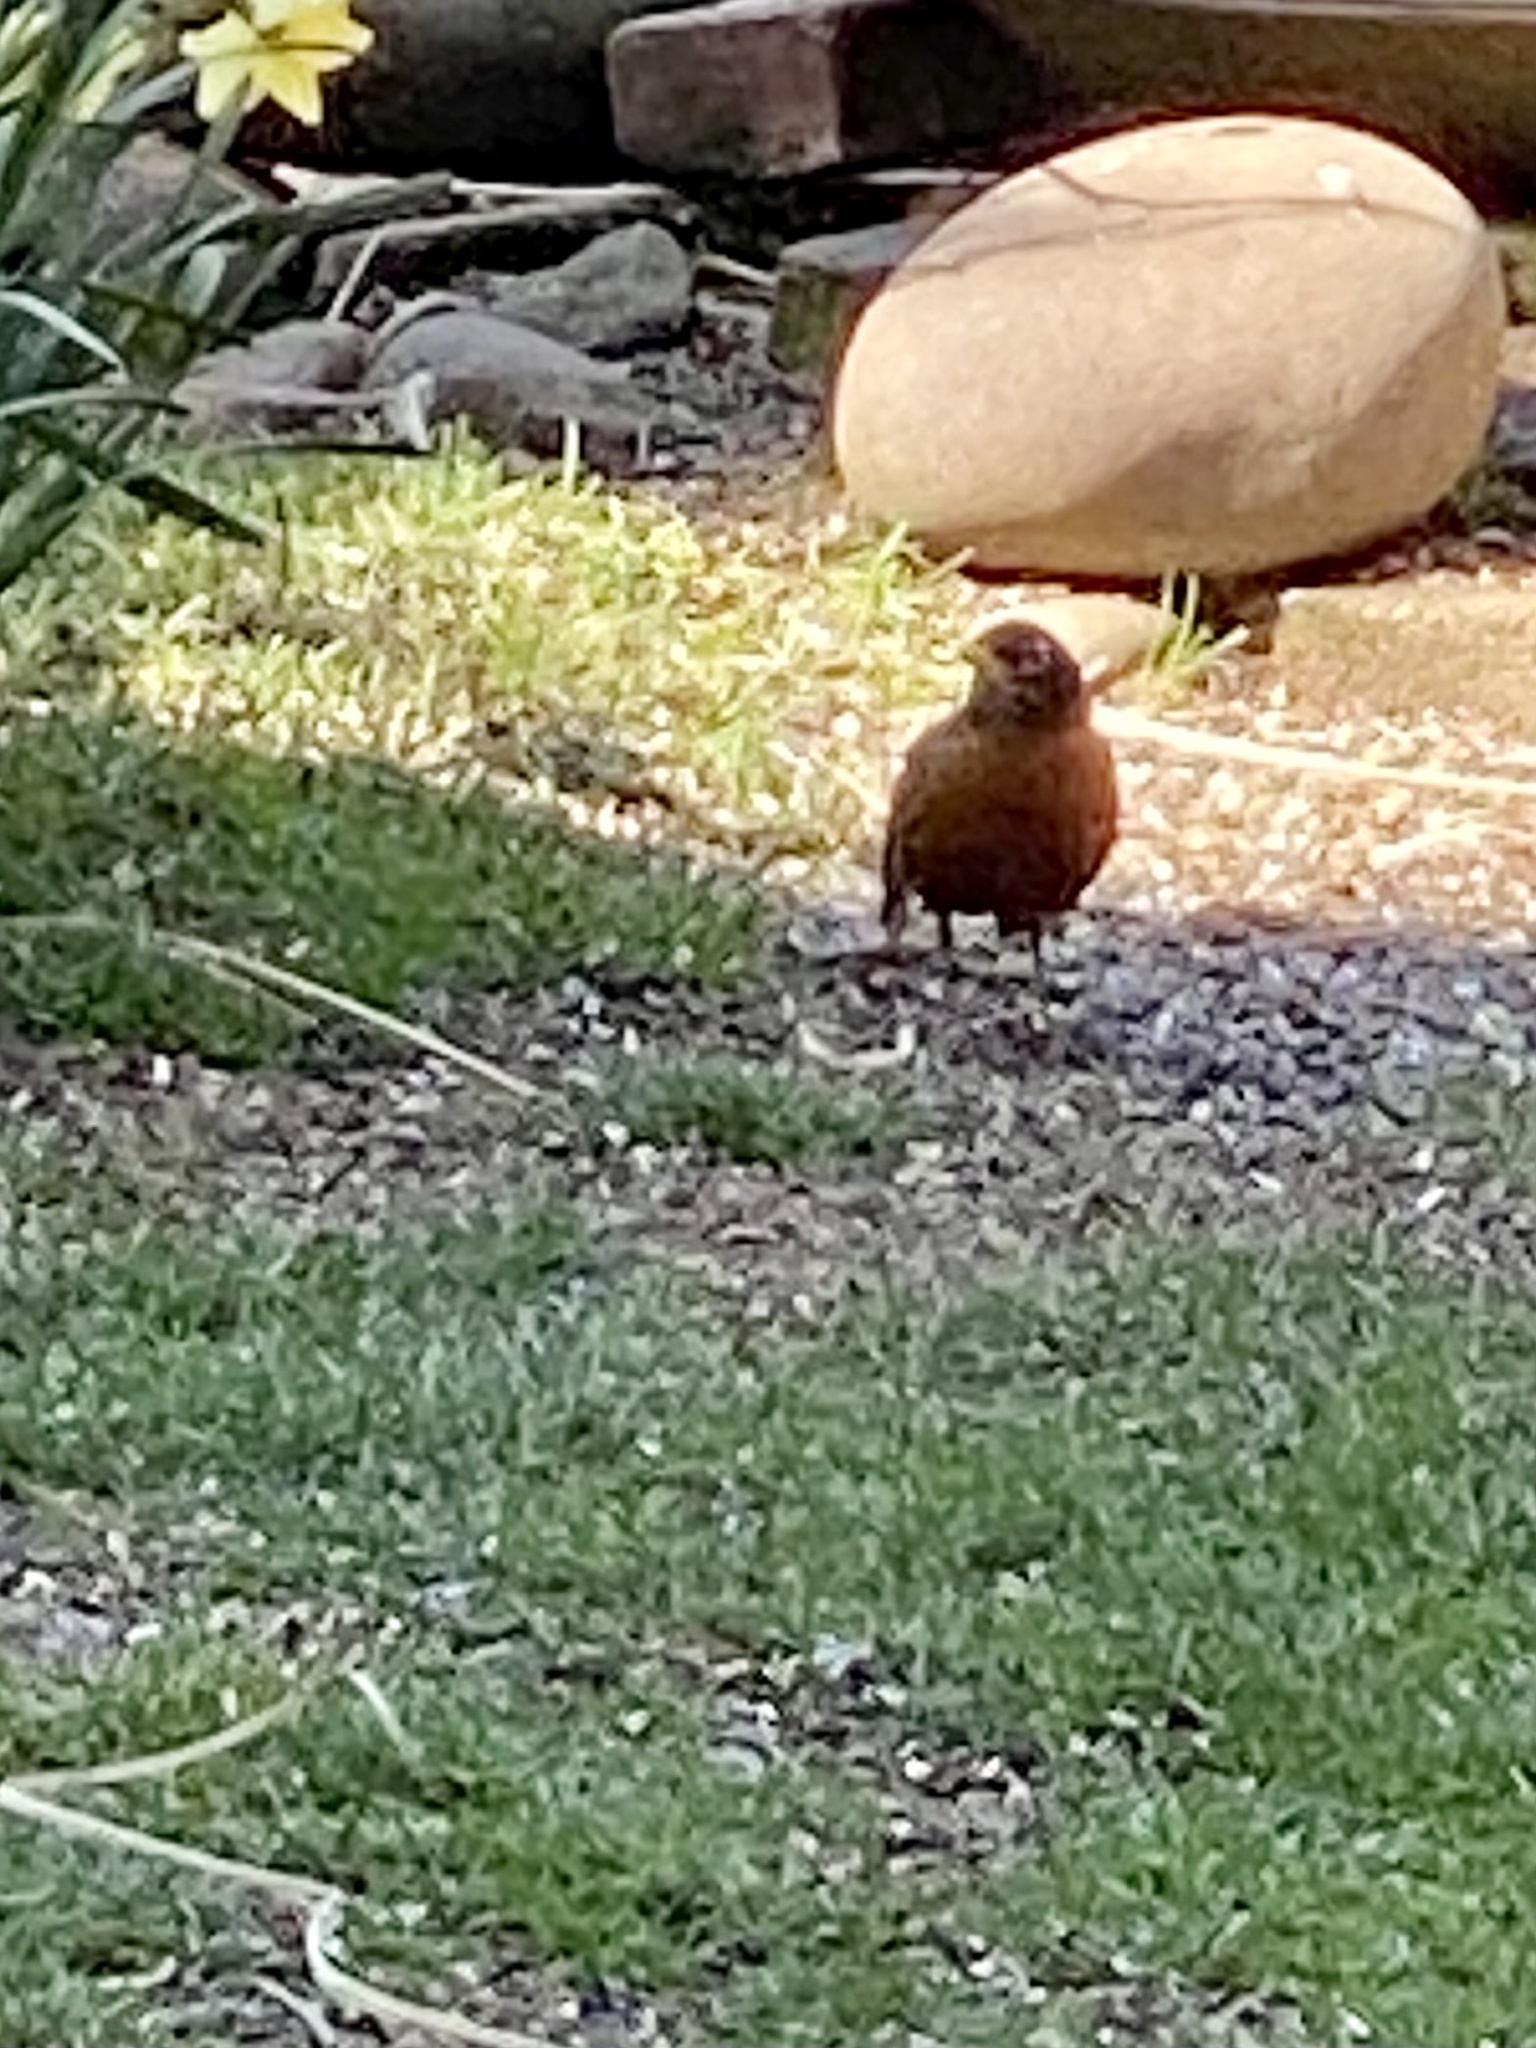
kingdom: Animalia
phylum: Chordata
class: Aves
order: Passeriformes
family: Turdidae
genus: Turdus
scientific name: Turdus migratorius
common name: American robin
